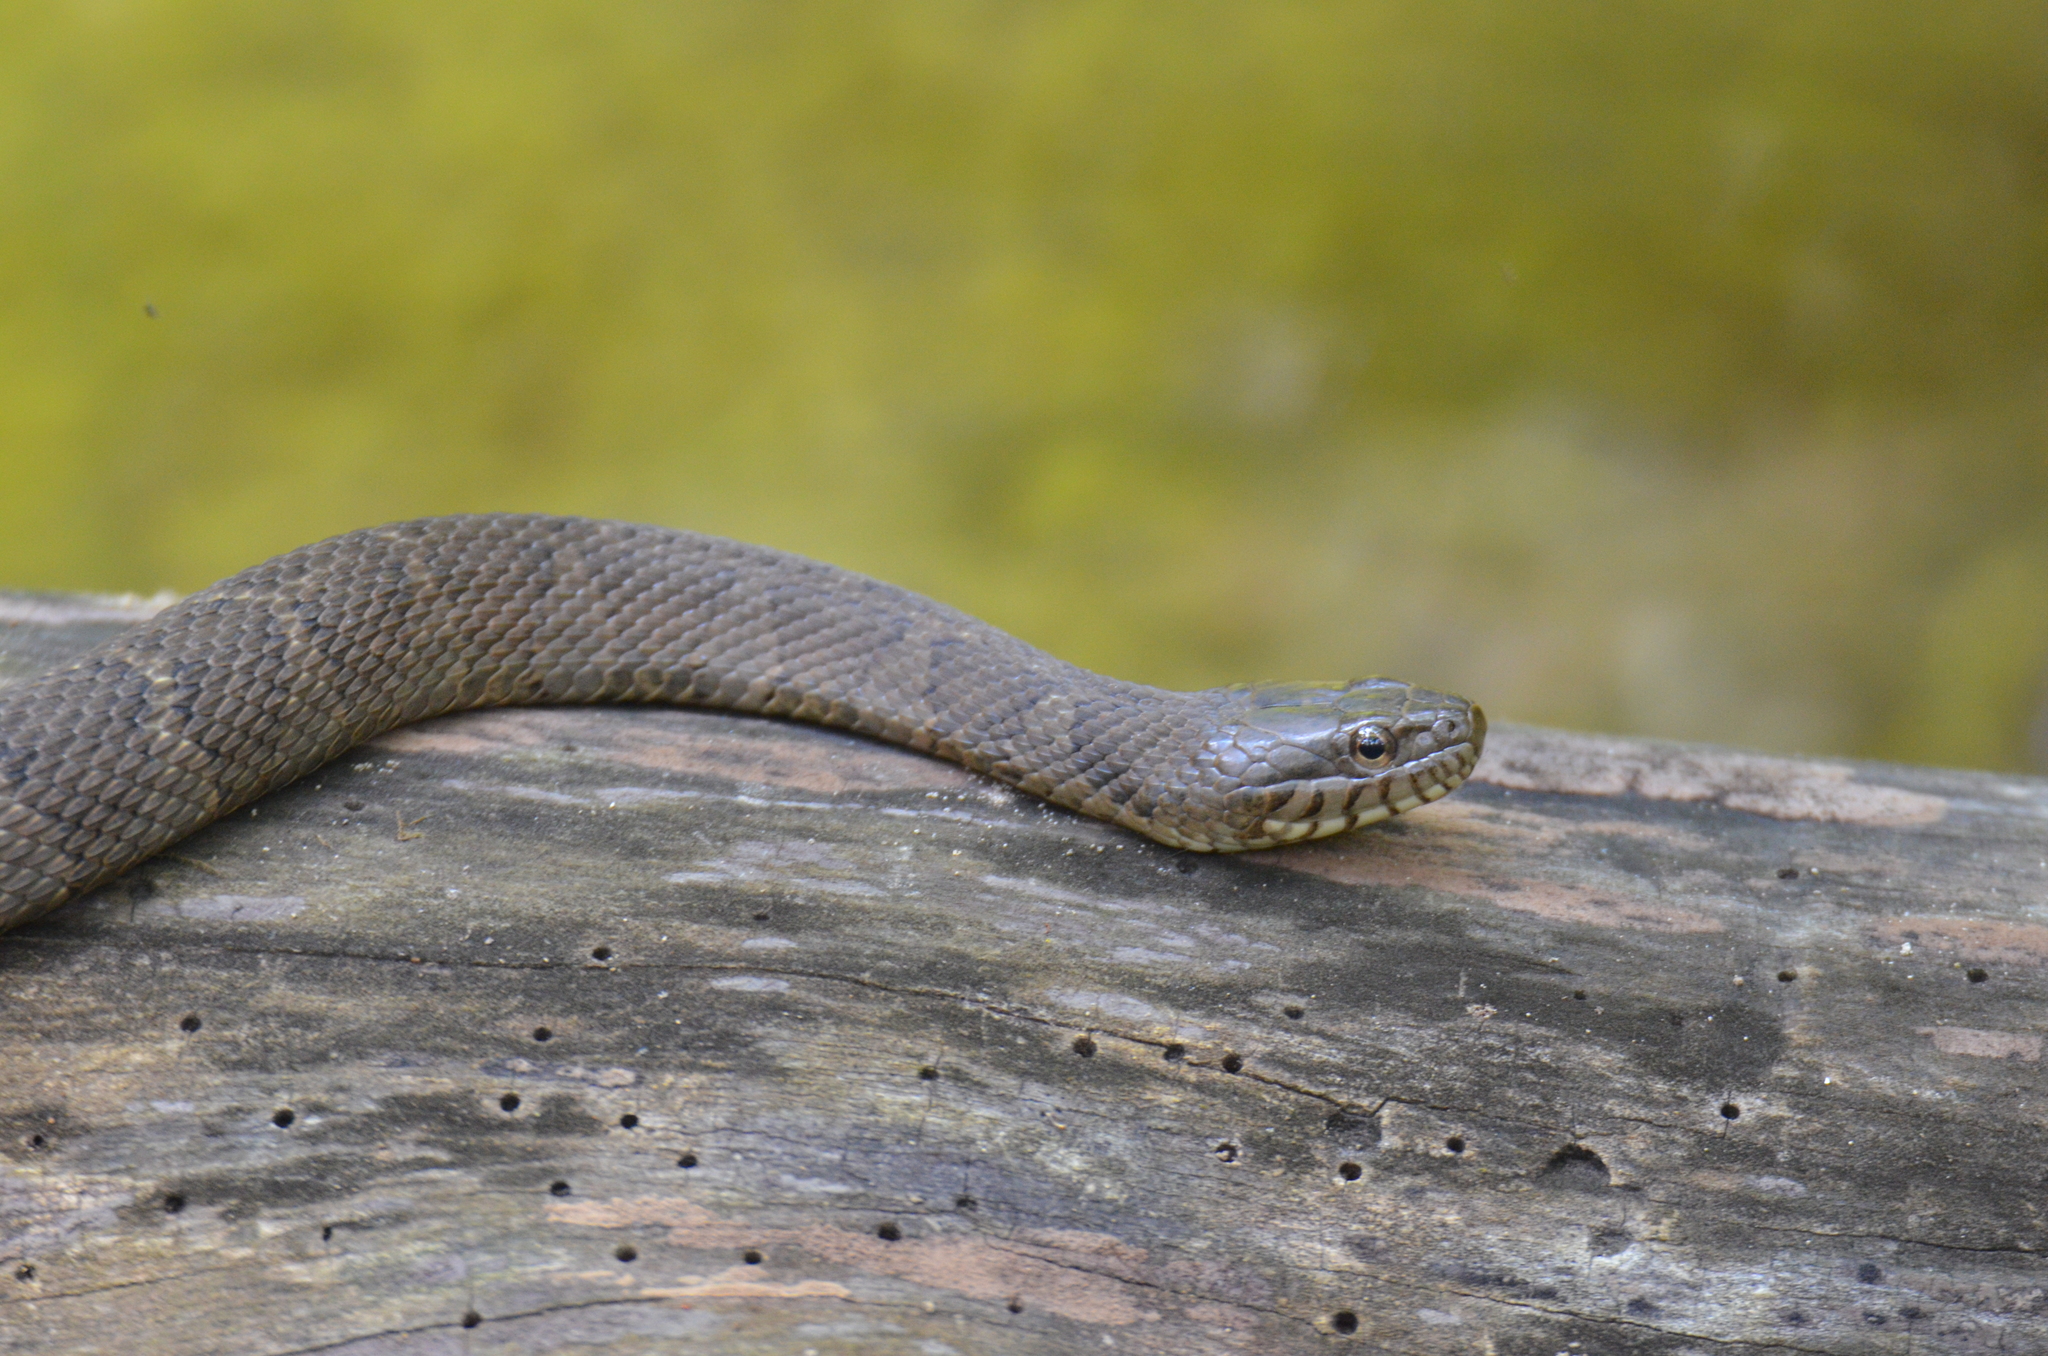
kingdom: Animalia
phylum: Chordata
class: Squamata
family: Colubridae
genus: Nerodia
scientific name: Nerodia sipedon
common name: Northern water snake
